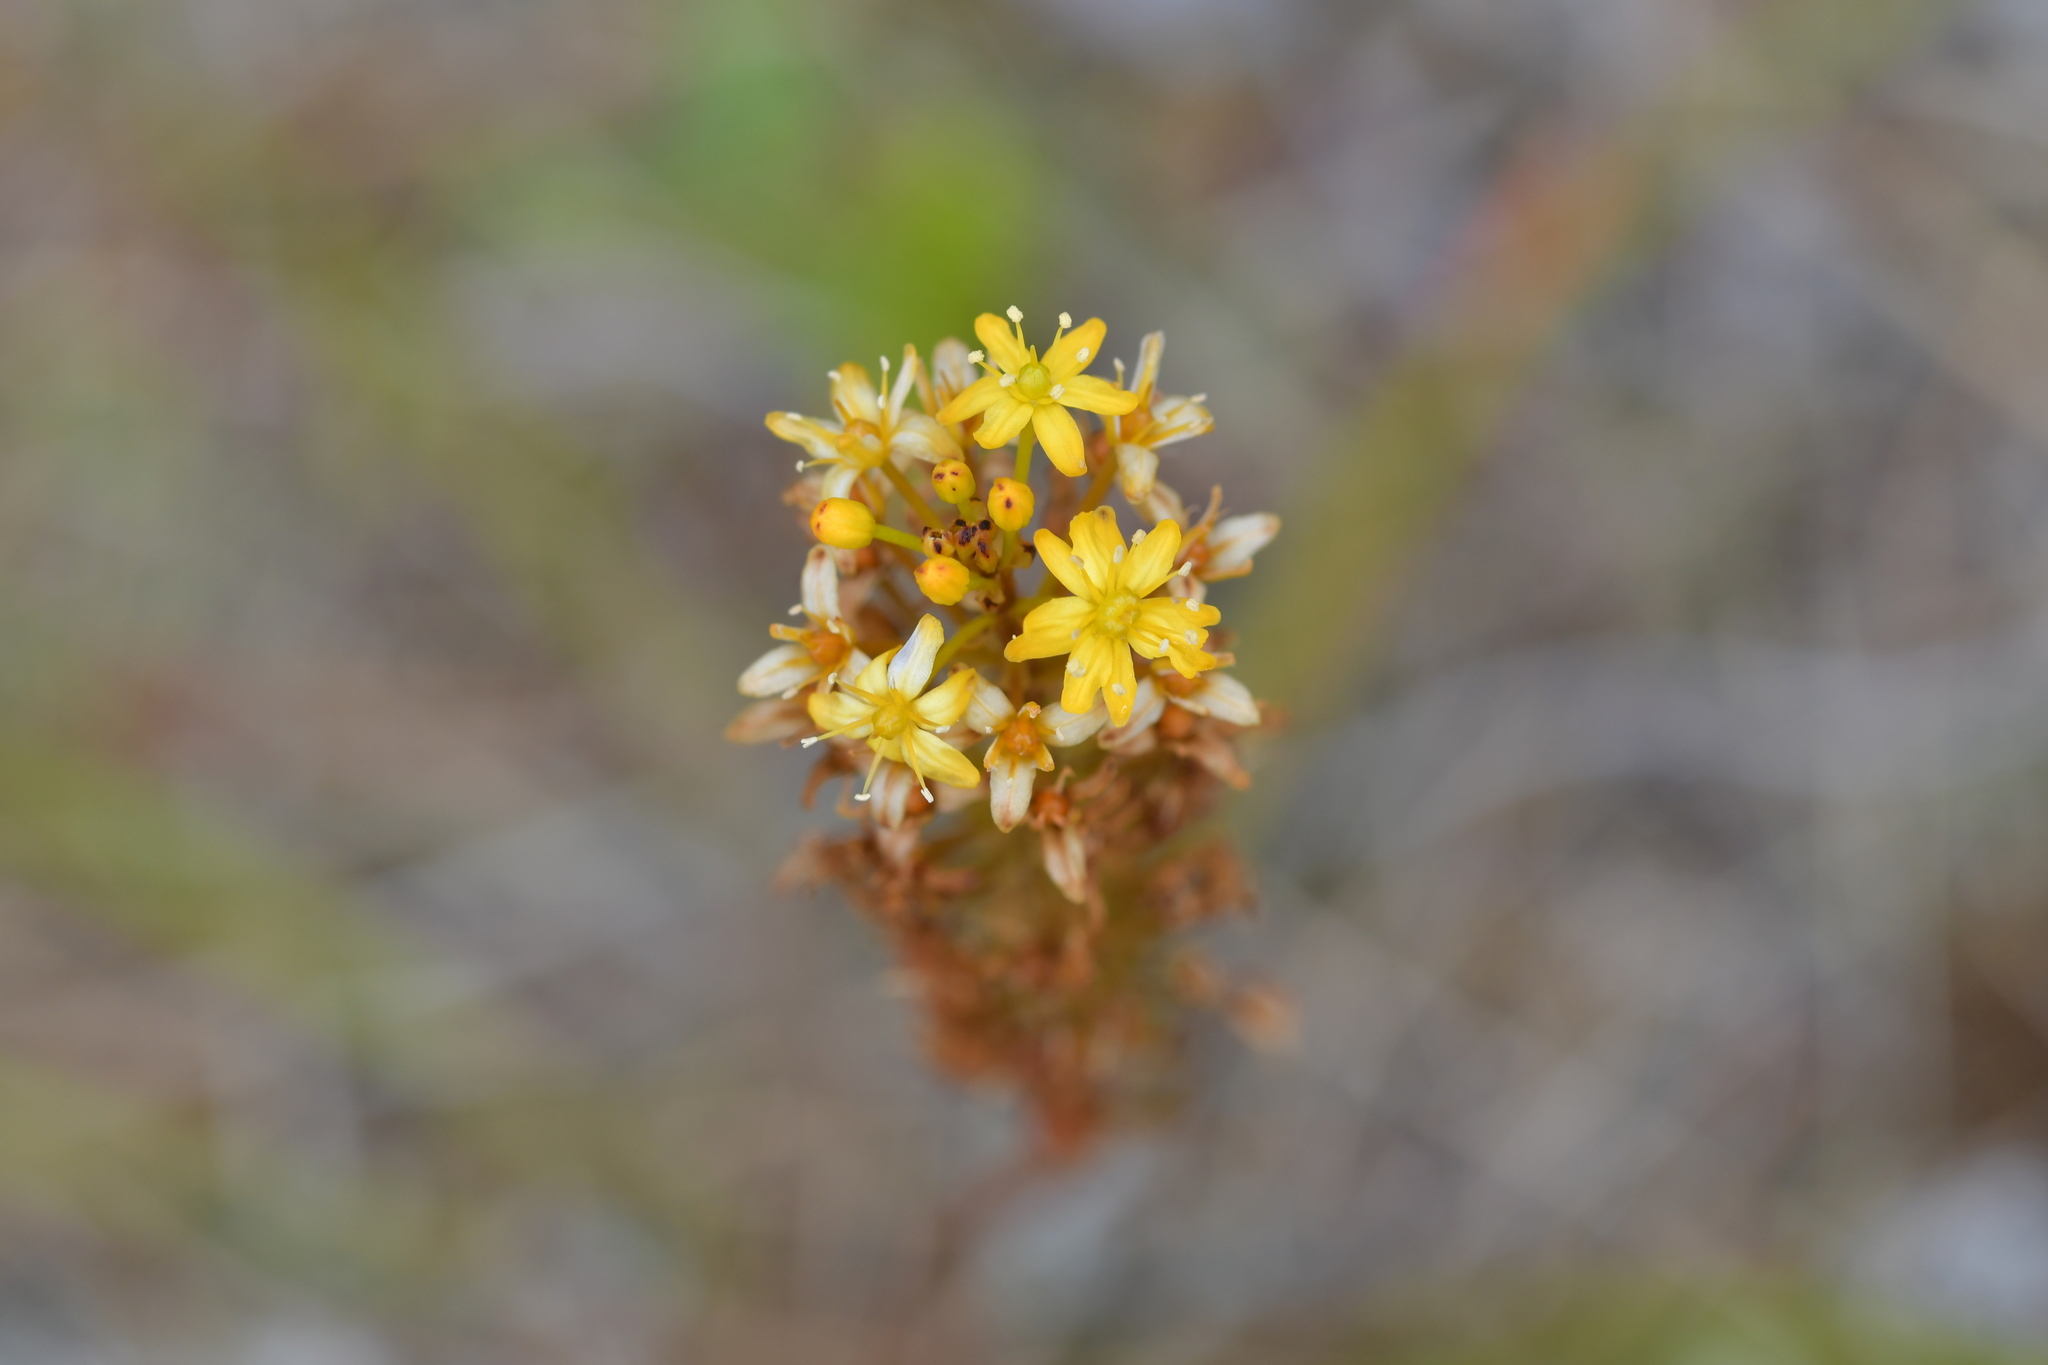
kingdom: Plantae
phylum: Tracheophyta
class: Liliopsida
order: Asparagales
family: Asphodelaceae
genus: Bulbinella
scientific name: Bulbinella angustifolia
